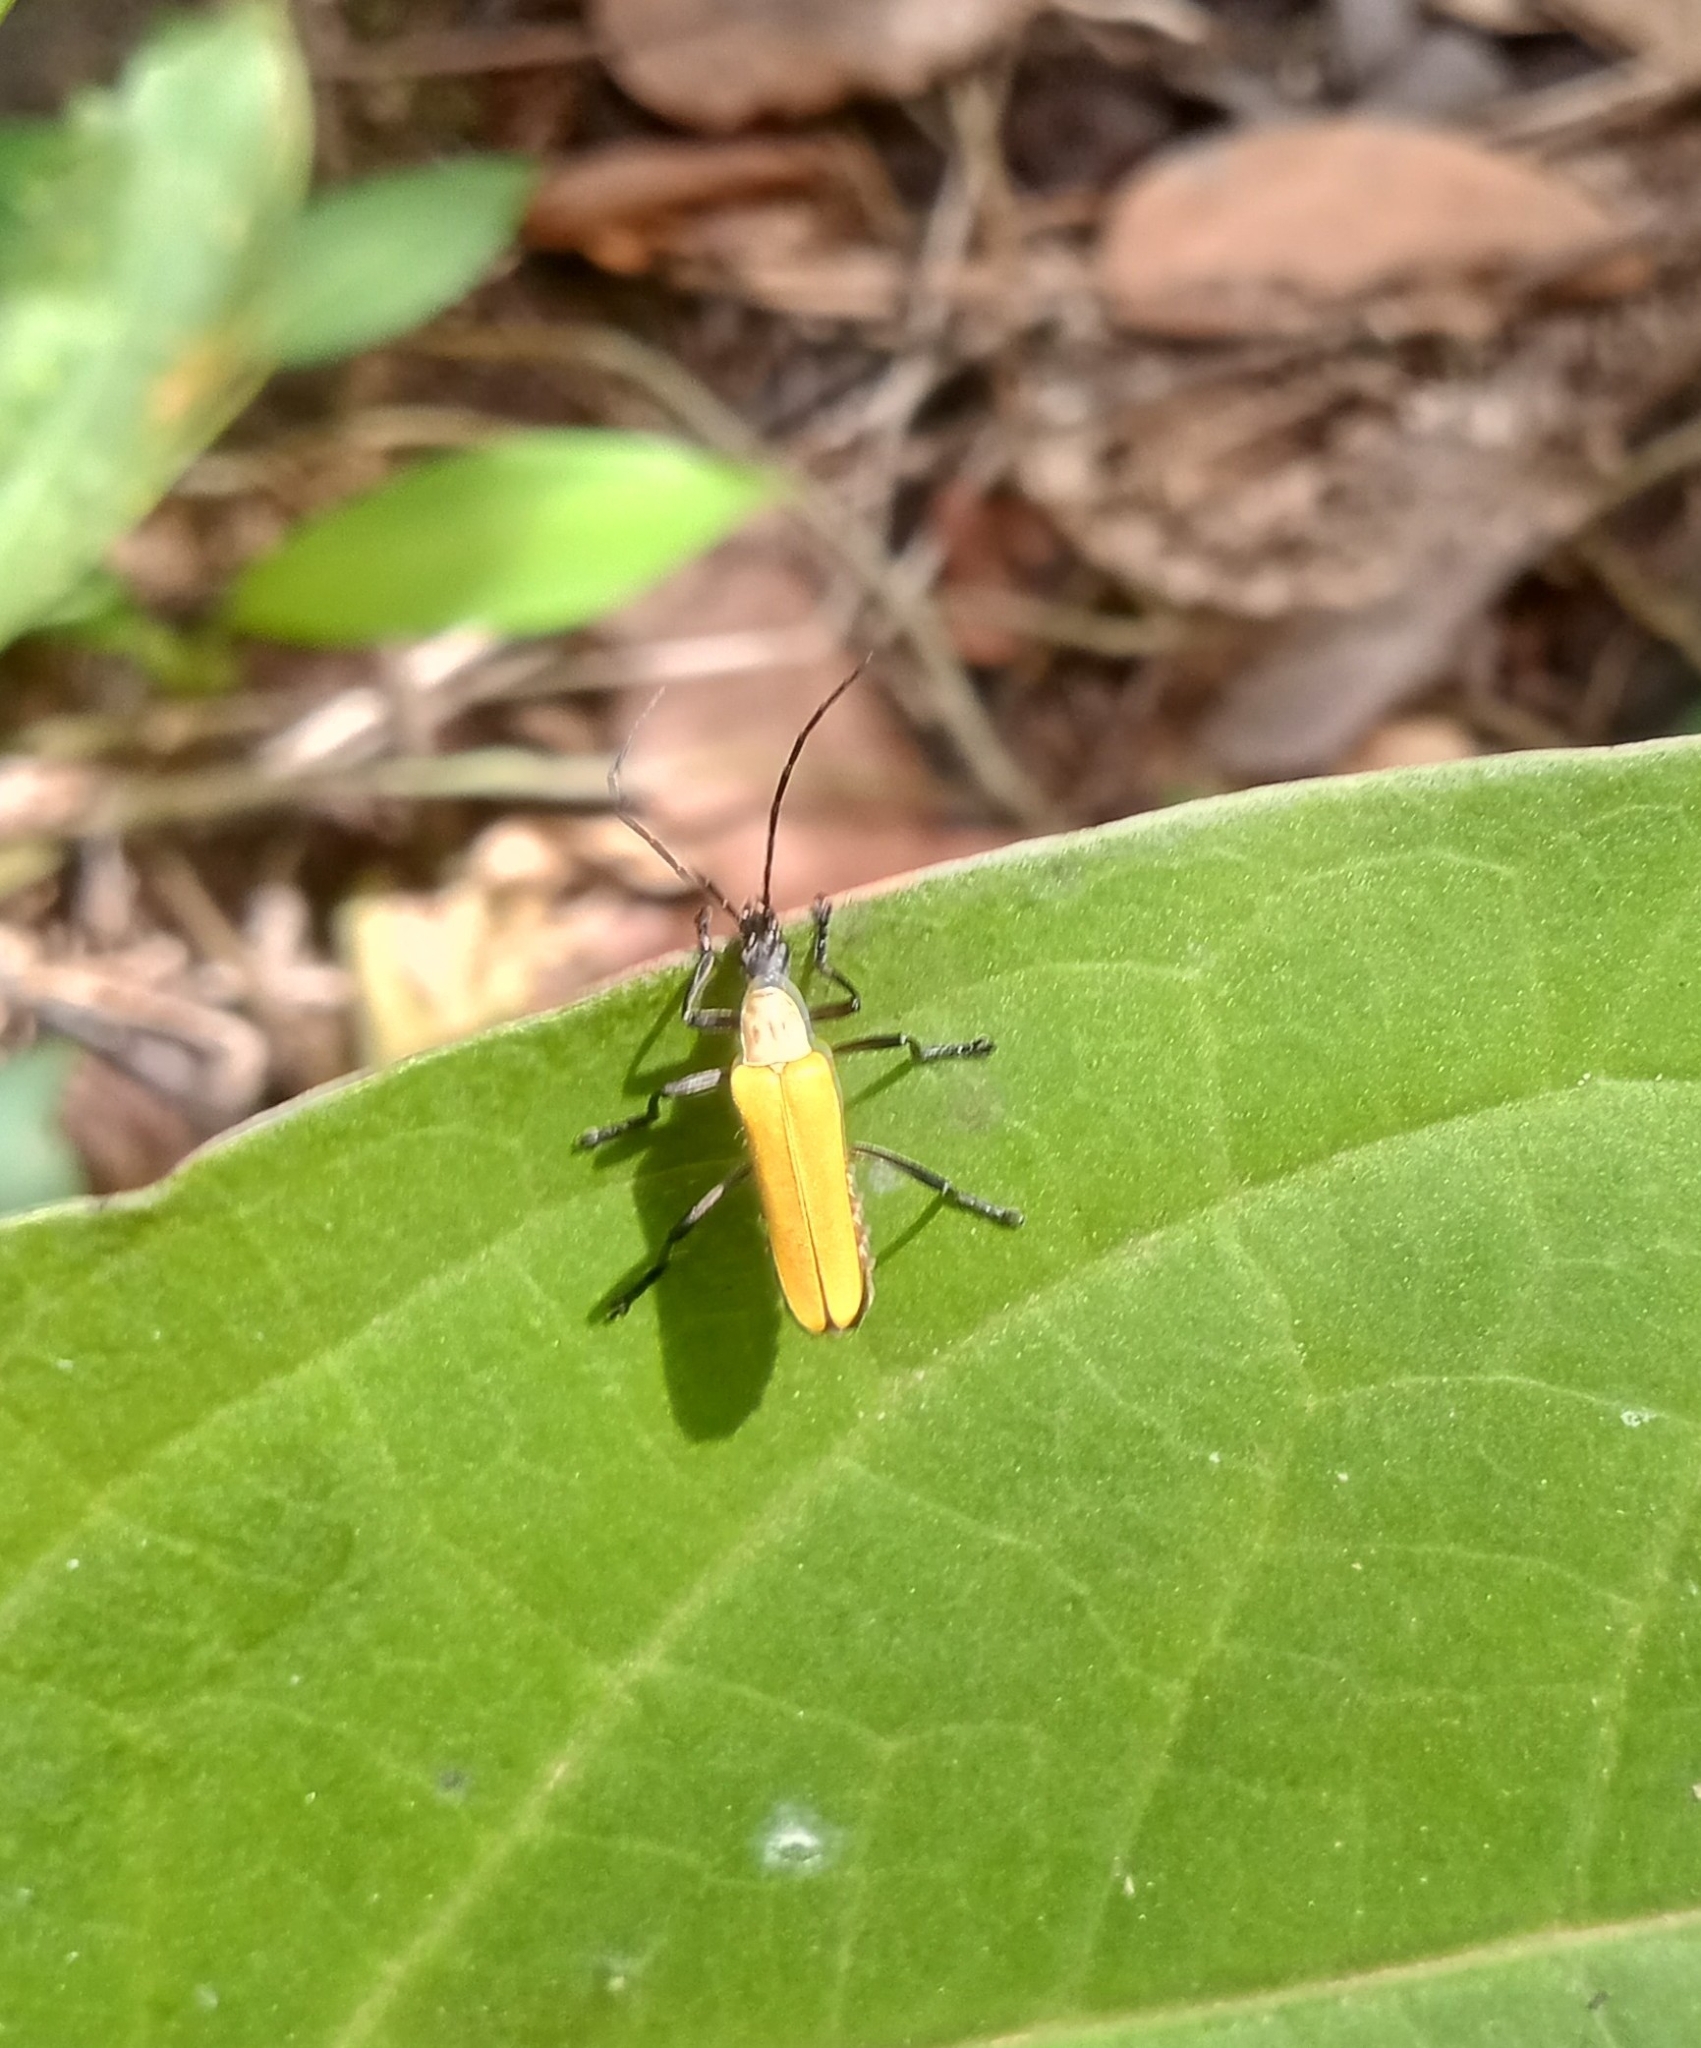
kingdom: Animalia
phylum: Arthropoda
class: Insecta
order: Coleoptera
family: Cantharidae
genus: Chauliognathus
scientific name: Chauliognathus
